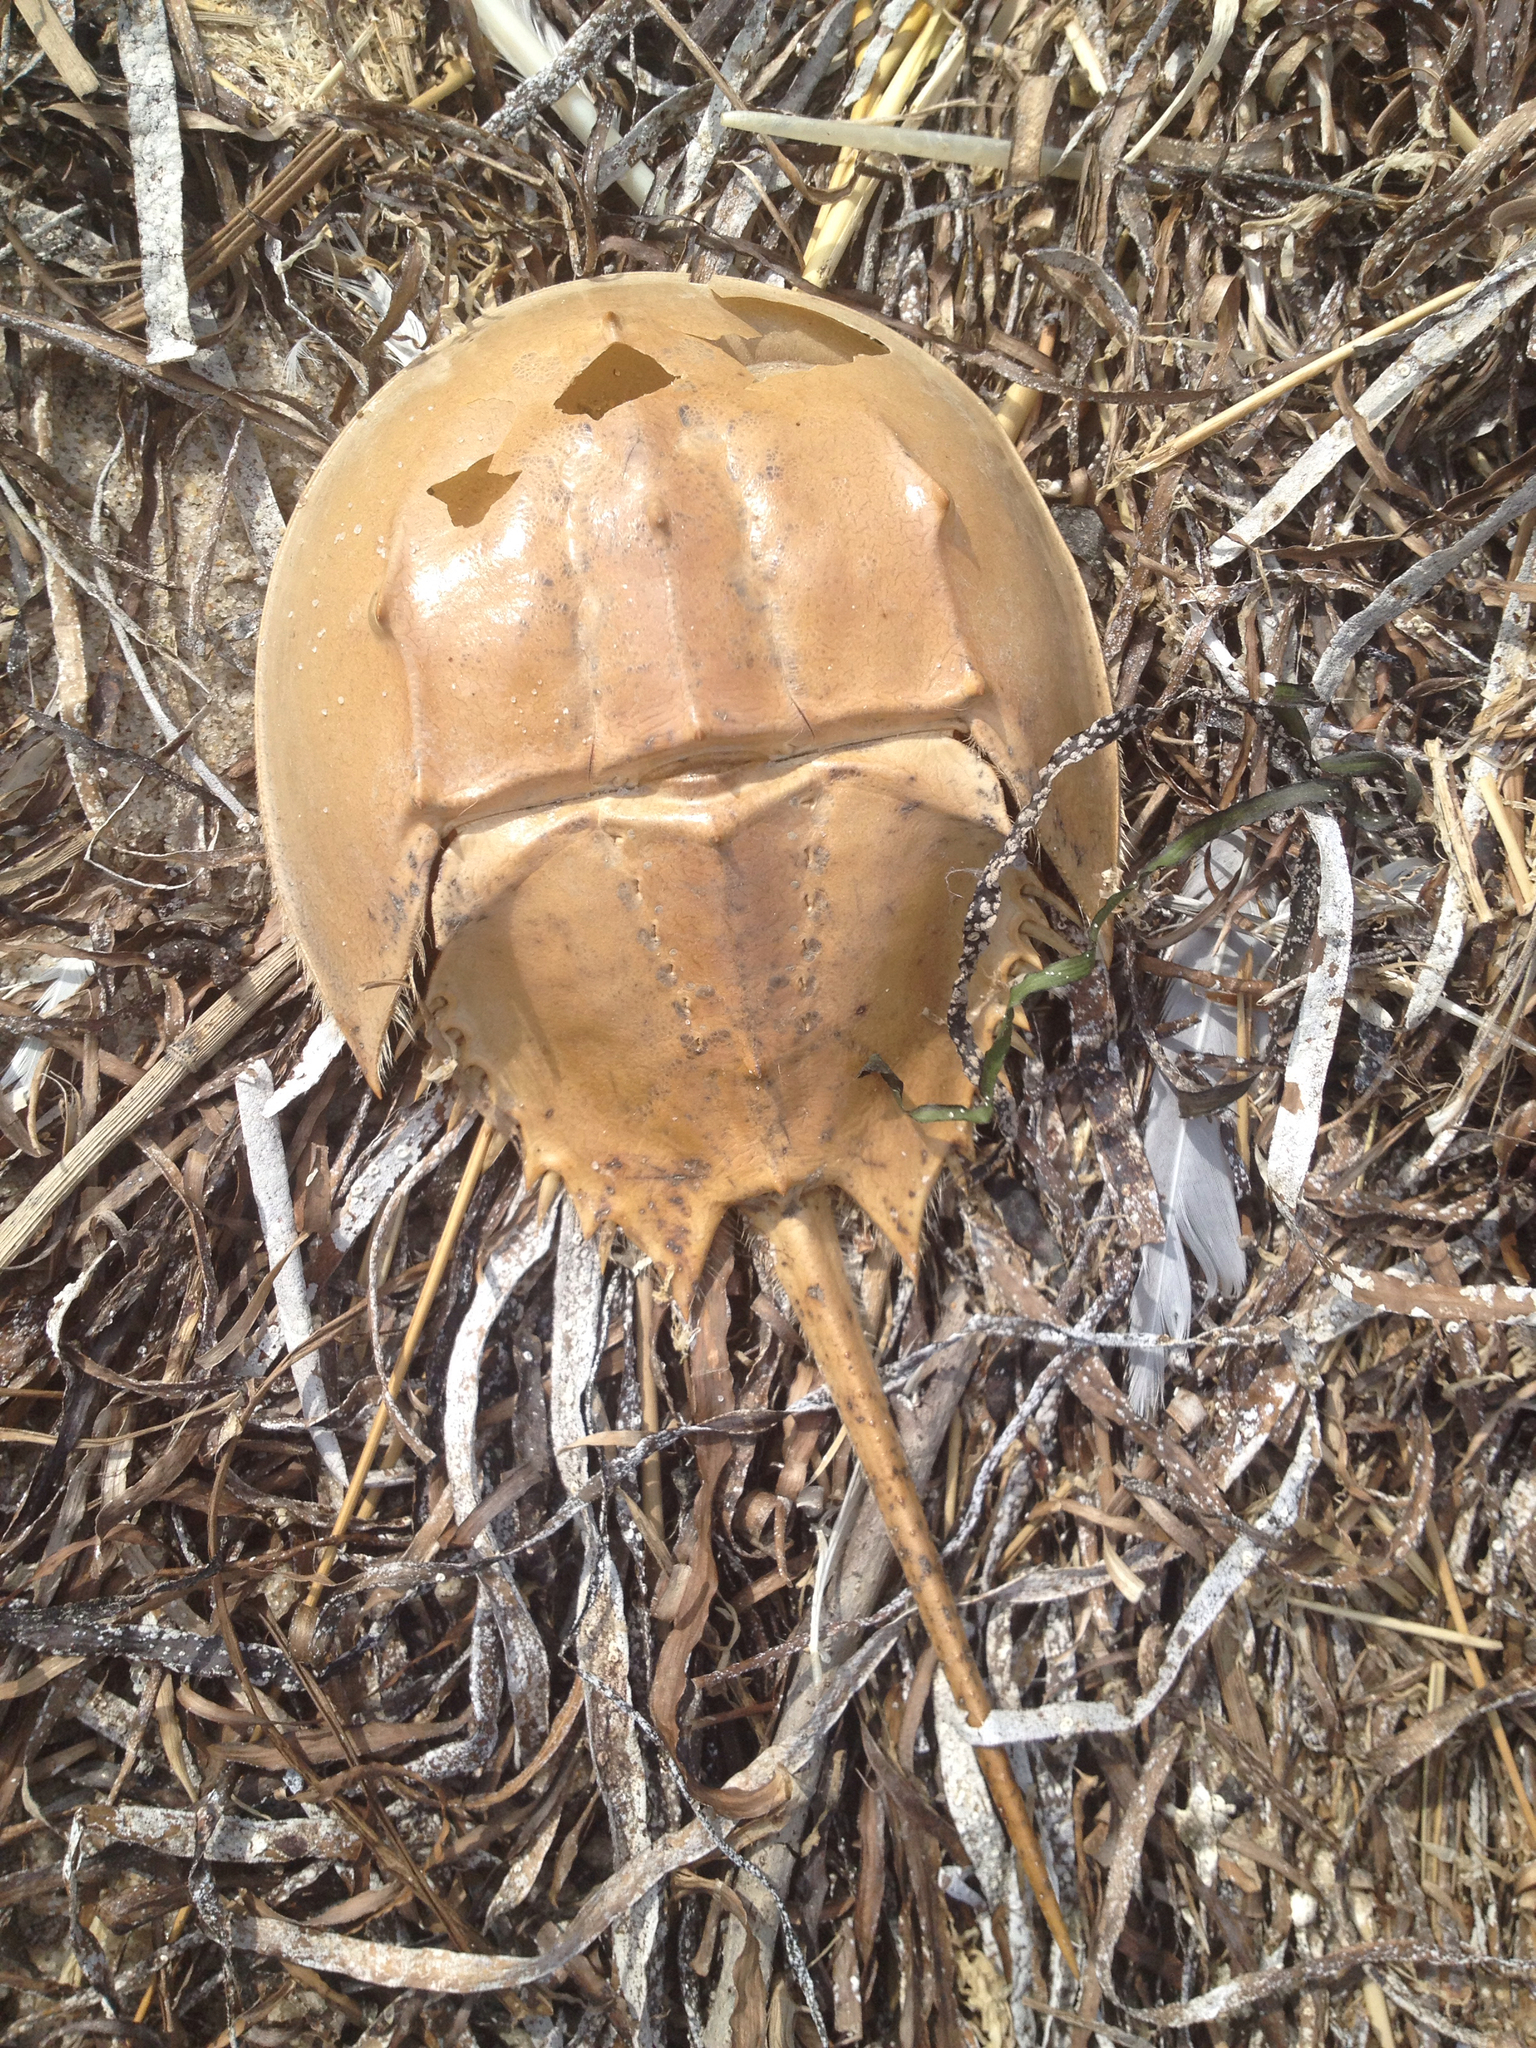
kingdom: Animalia
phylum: Arthropoda
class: Merostomata
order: Xiphosurida
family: Limulidae
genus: Limulus
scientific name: Limulus polyphemus
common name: Horseshoe crab
